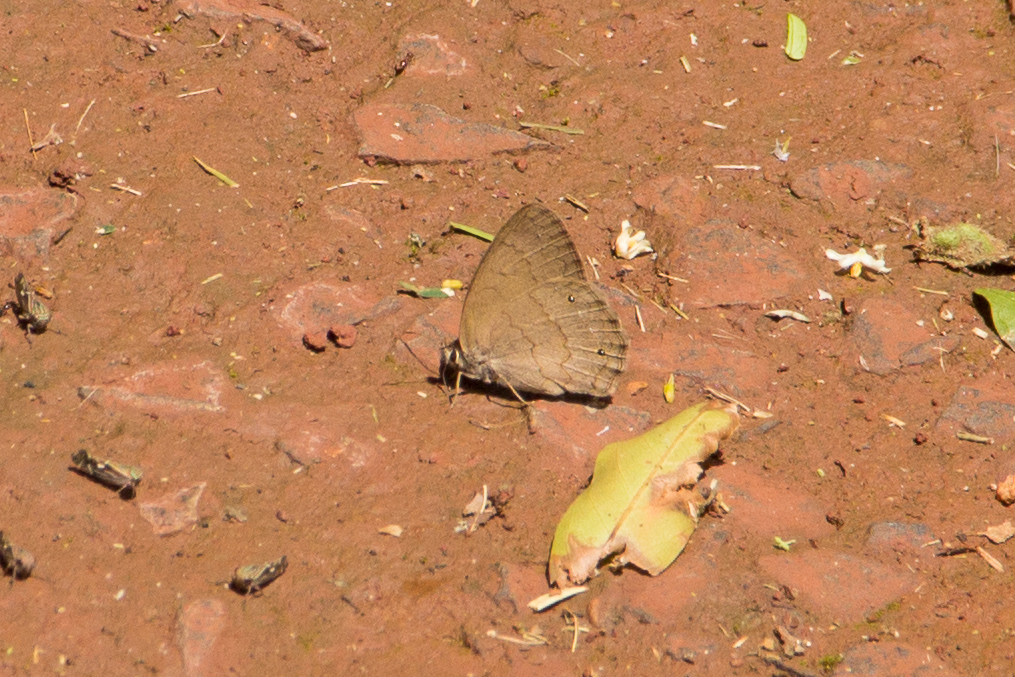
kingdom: Animalia
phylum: Arthropoda
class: Insecta
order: Lepidoptera
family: Nymphalidae
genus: Euptychia
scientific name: Euptychia Cissia eous
